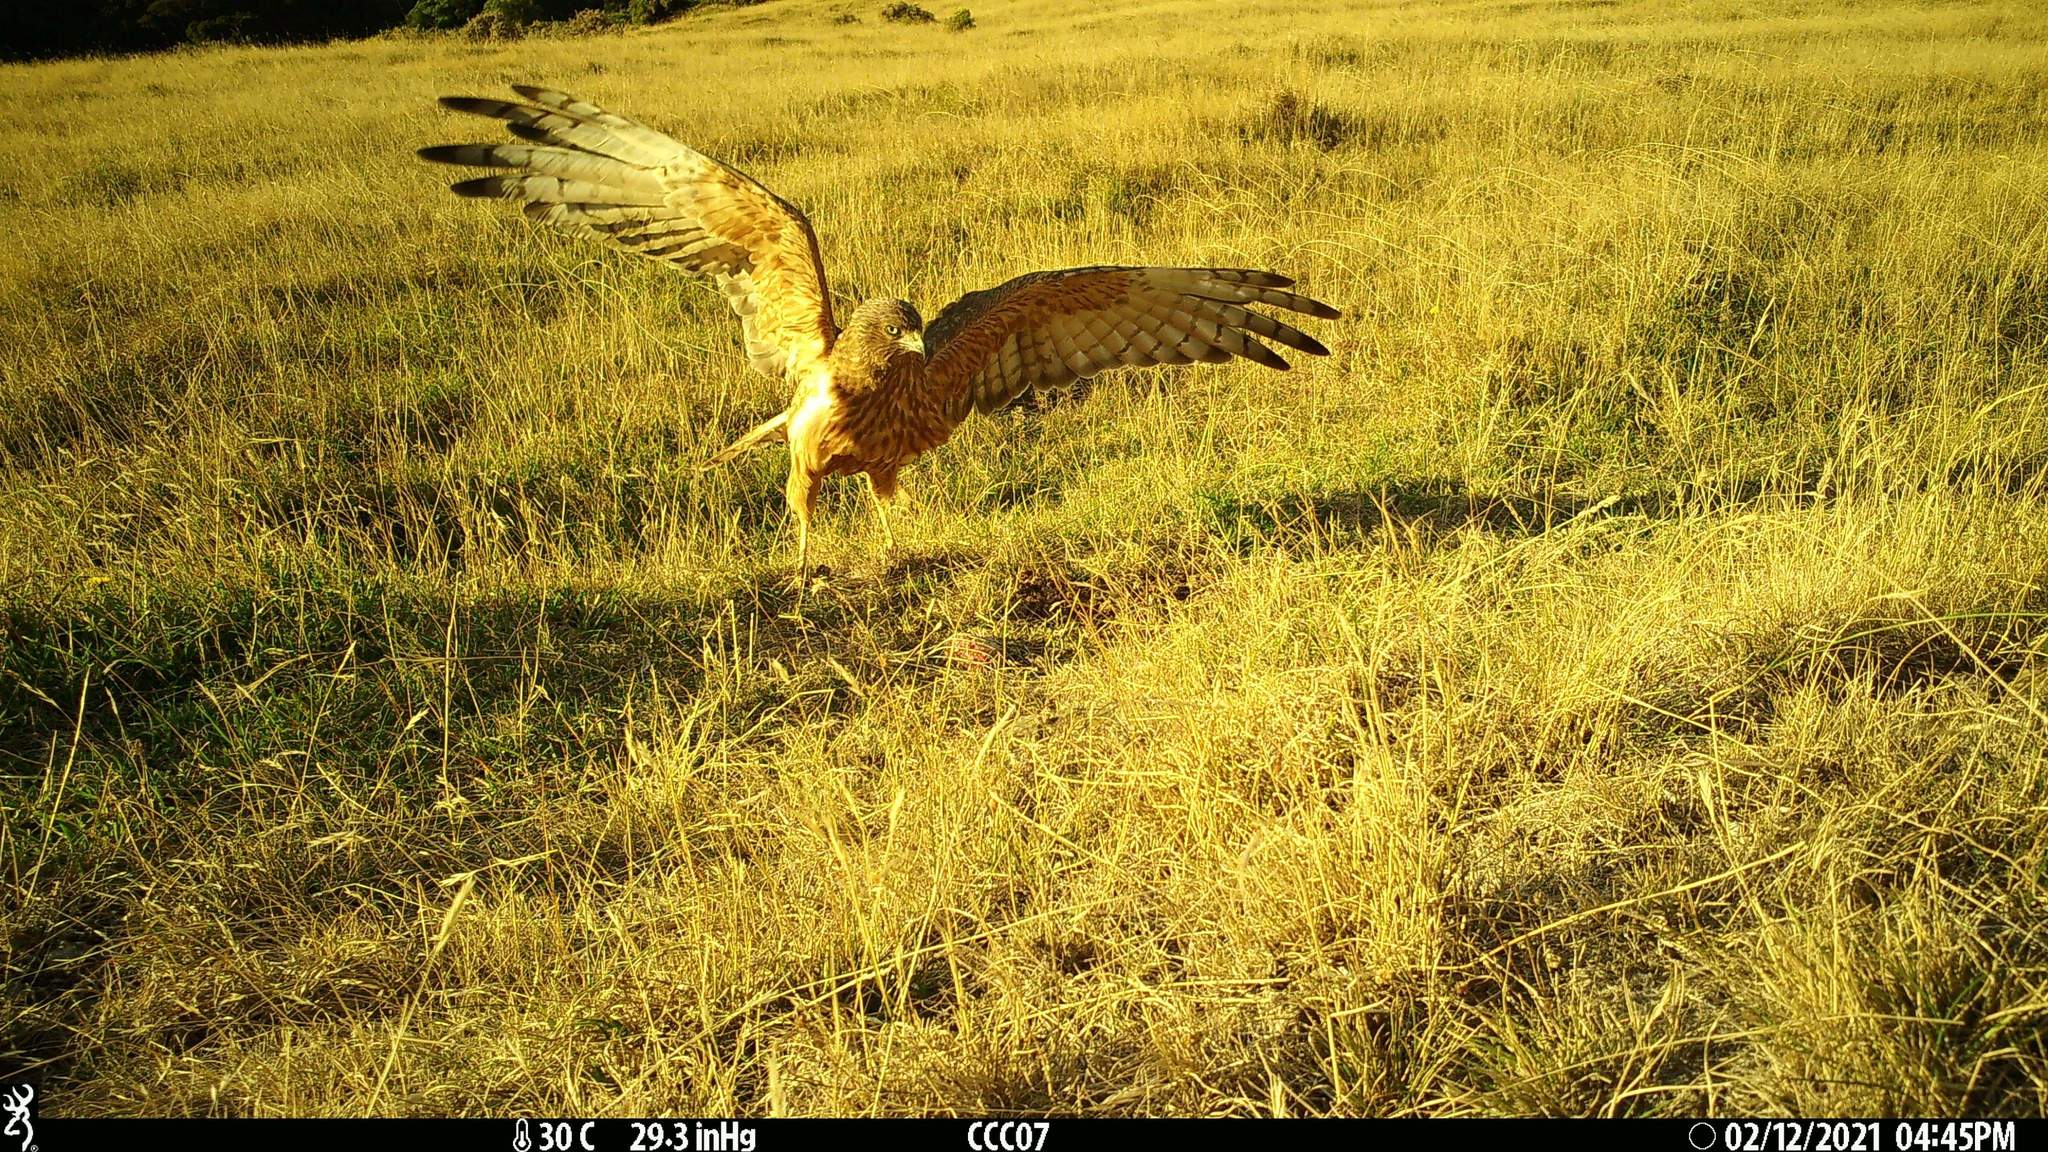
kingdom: Animalia
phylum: Chordata
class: Aves
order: Accipitriformes
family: Accipitridae
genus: Circus
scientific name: Circus approximans
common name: Swamp harrier
